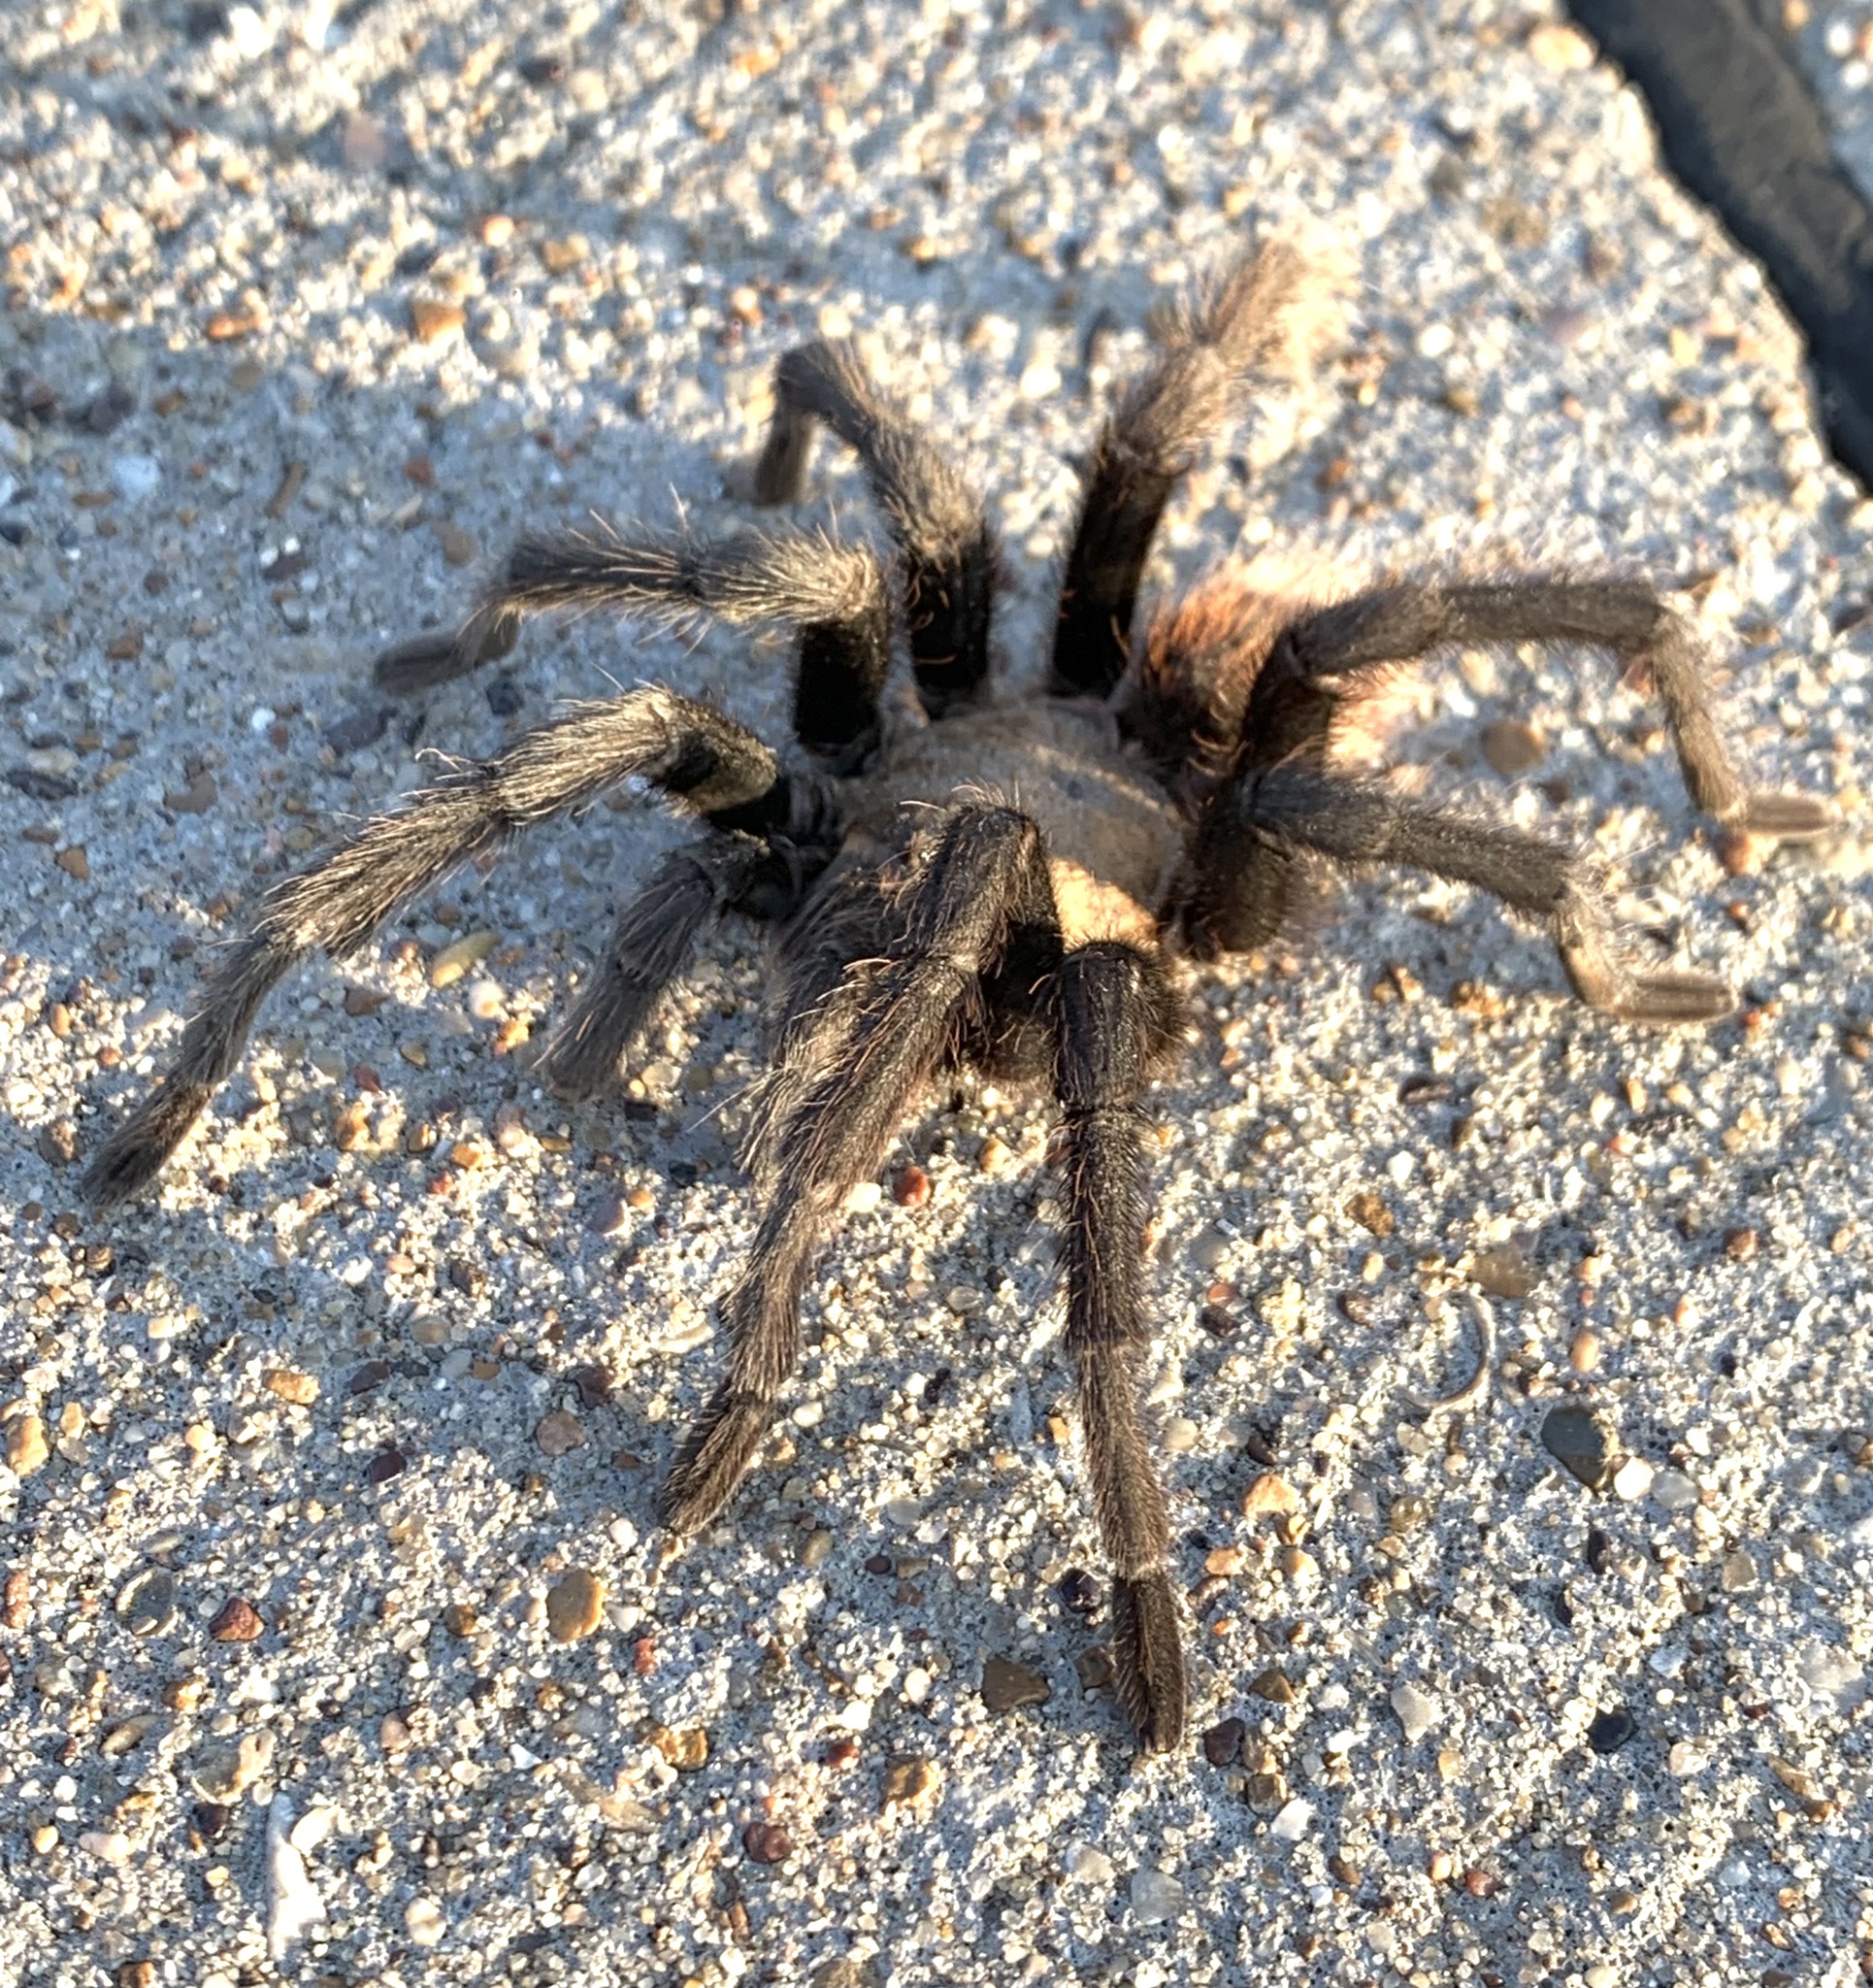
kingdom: Animalia
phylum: Arthropoda
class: Arachnida
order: Araneae
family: Theraphosidae
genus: Aphonopelma
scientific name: Aphonopelma hentzi
